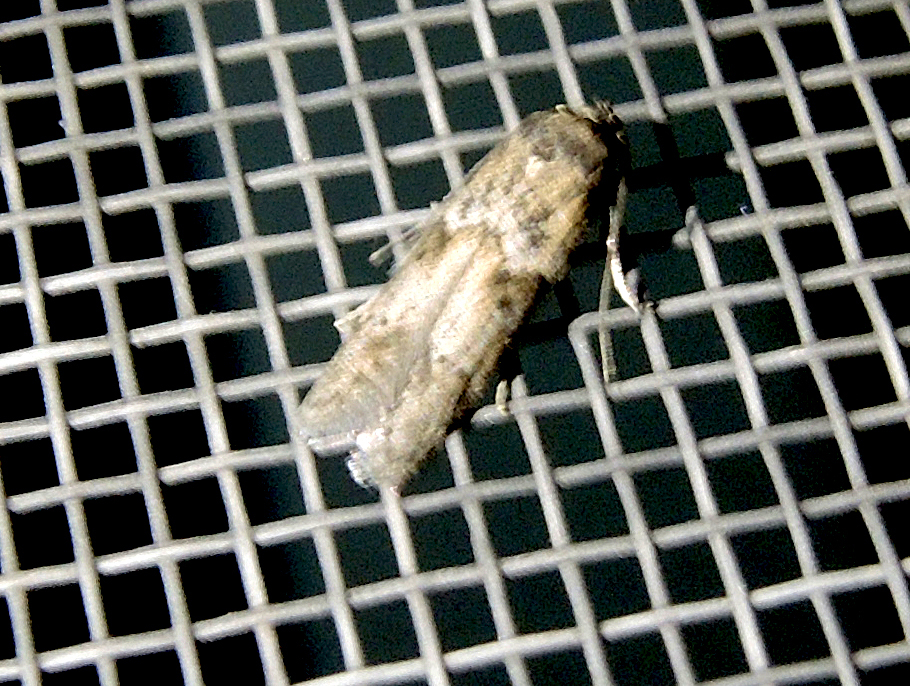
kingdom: Animalia
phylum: Arthropoda
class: Insecta
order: Lepidoptera
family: Blastobasidae
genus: Blastobasis
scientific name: Blastobasis phycidella
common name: Hampshire dowd
